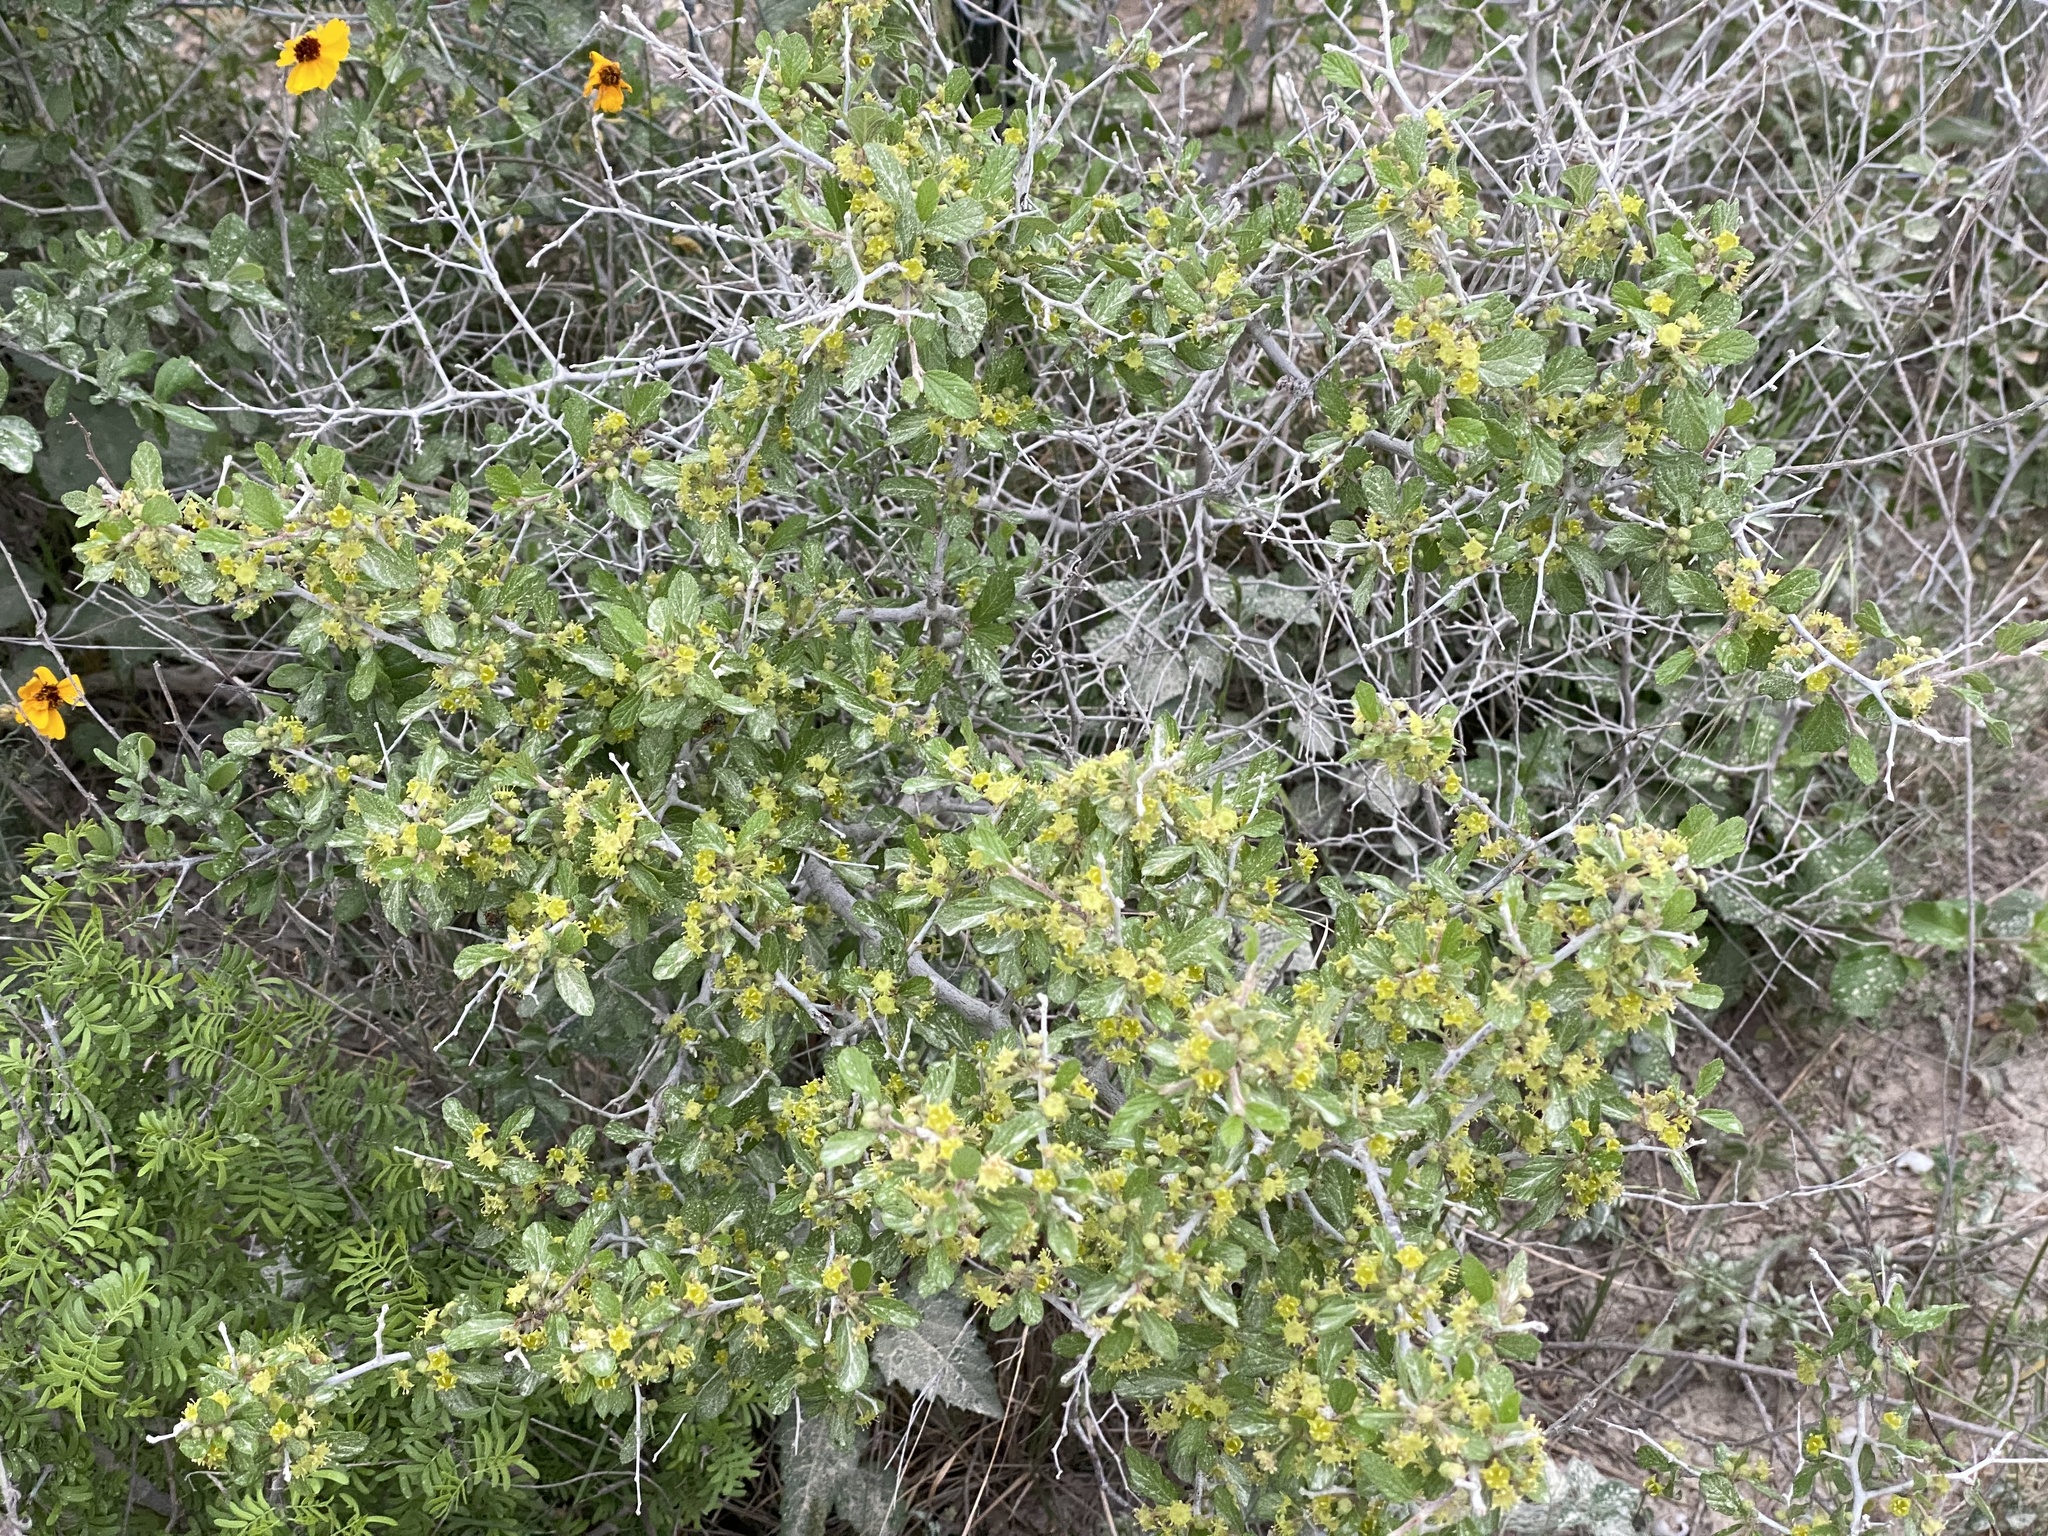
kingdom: Plantae
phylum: Tracheophyta
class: Magnoliopsida
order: Rosales
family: Rhamnaceae
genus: Colubrina
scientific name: Colubrina texensis
